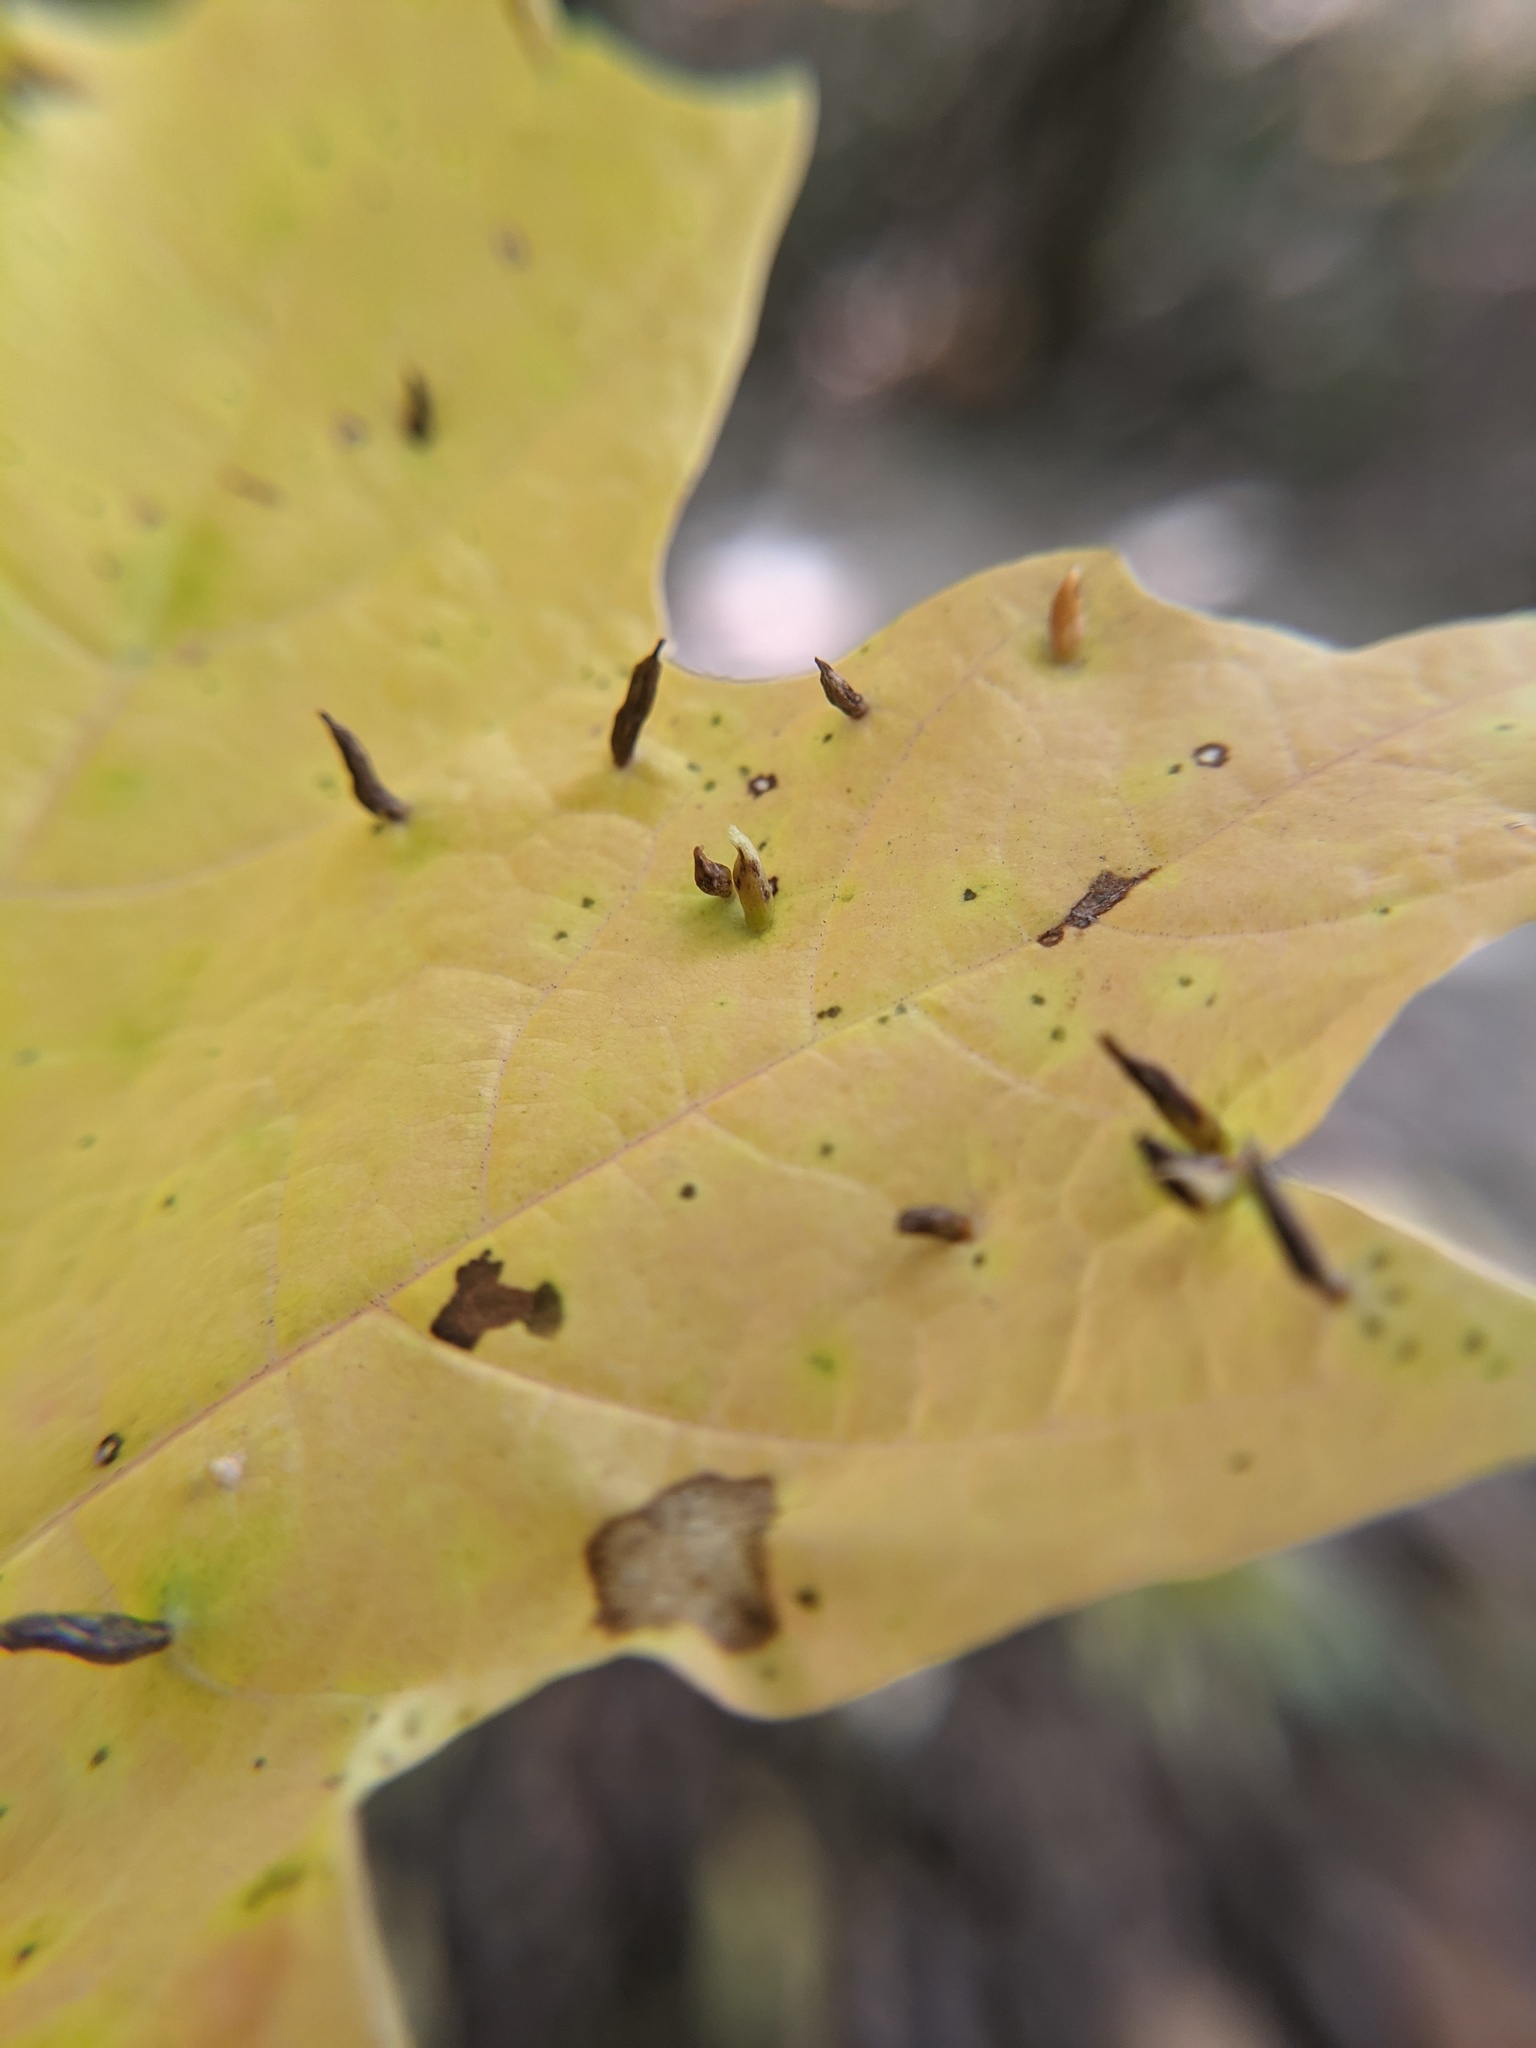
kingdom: Animalia
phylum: Arthropoda
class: Arachnida
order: Trombidiformes
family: Eriophyidae
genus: Vasates
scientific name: Vasates aceriscrumena
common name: Maple spindle gall mite
